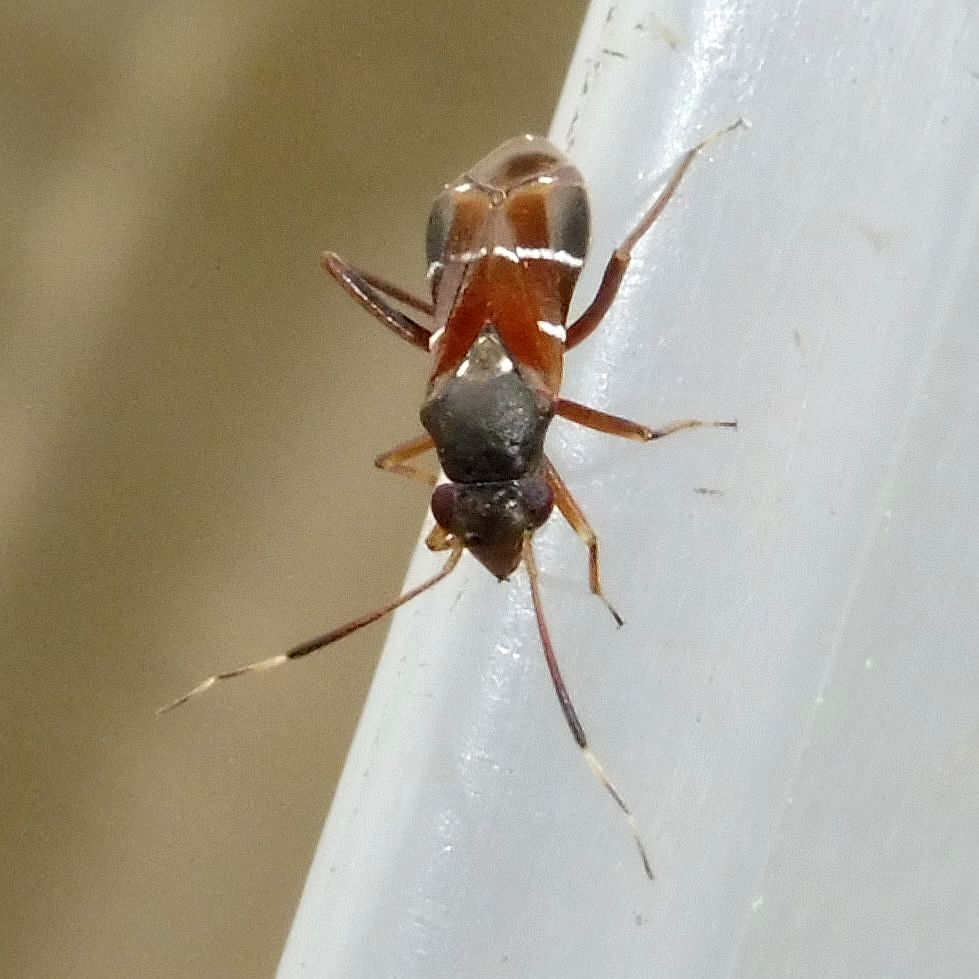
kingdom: Animalia
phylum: Arthropoda
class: Insecta
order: Hemiptera
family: Miridae
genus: Pilophorus
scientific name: Pilophorus perplexus
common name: Plant bug
